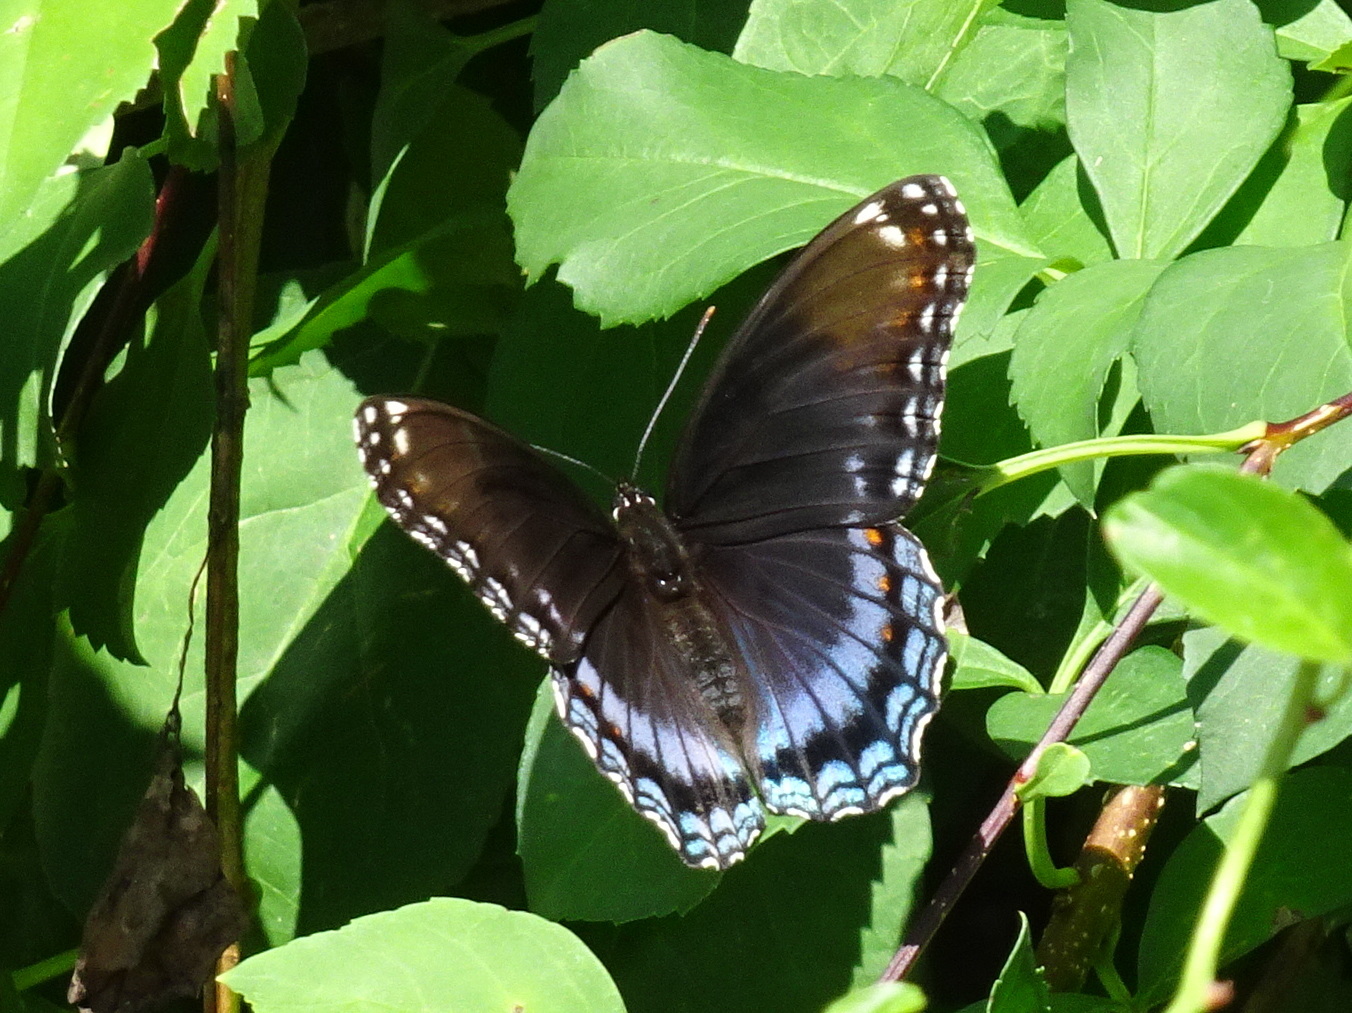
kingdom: Animalia
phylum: Arthropoda
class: Insecta
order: Lepidoptera
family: Nymphalidae
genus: Limenitis
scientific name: Limenitis arthemis
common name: Red-spotted admiral
